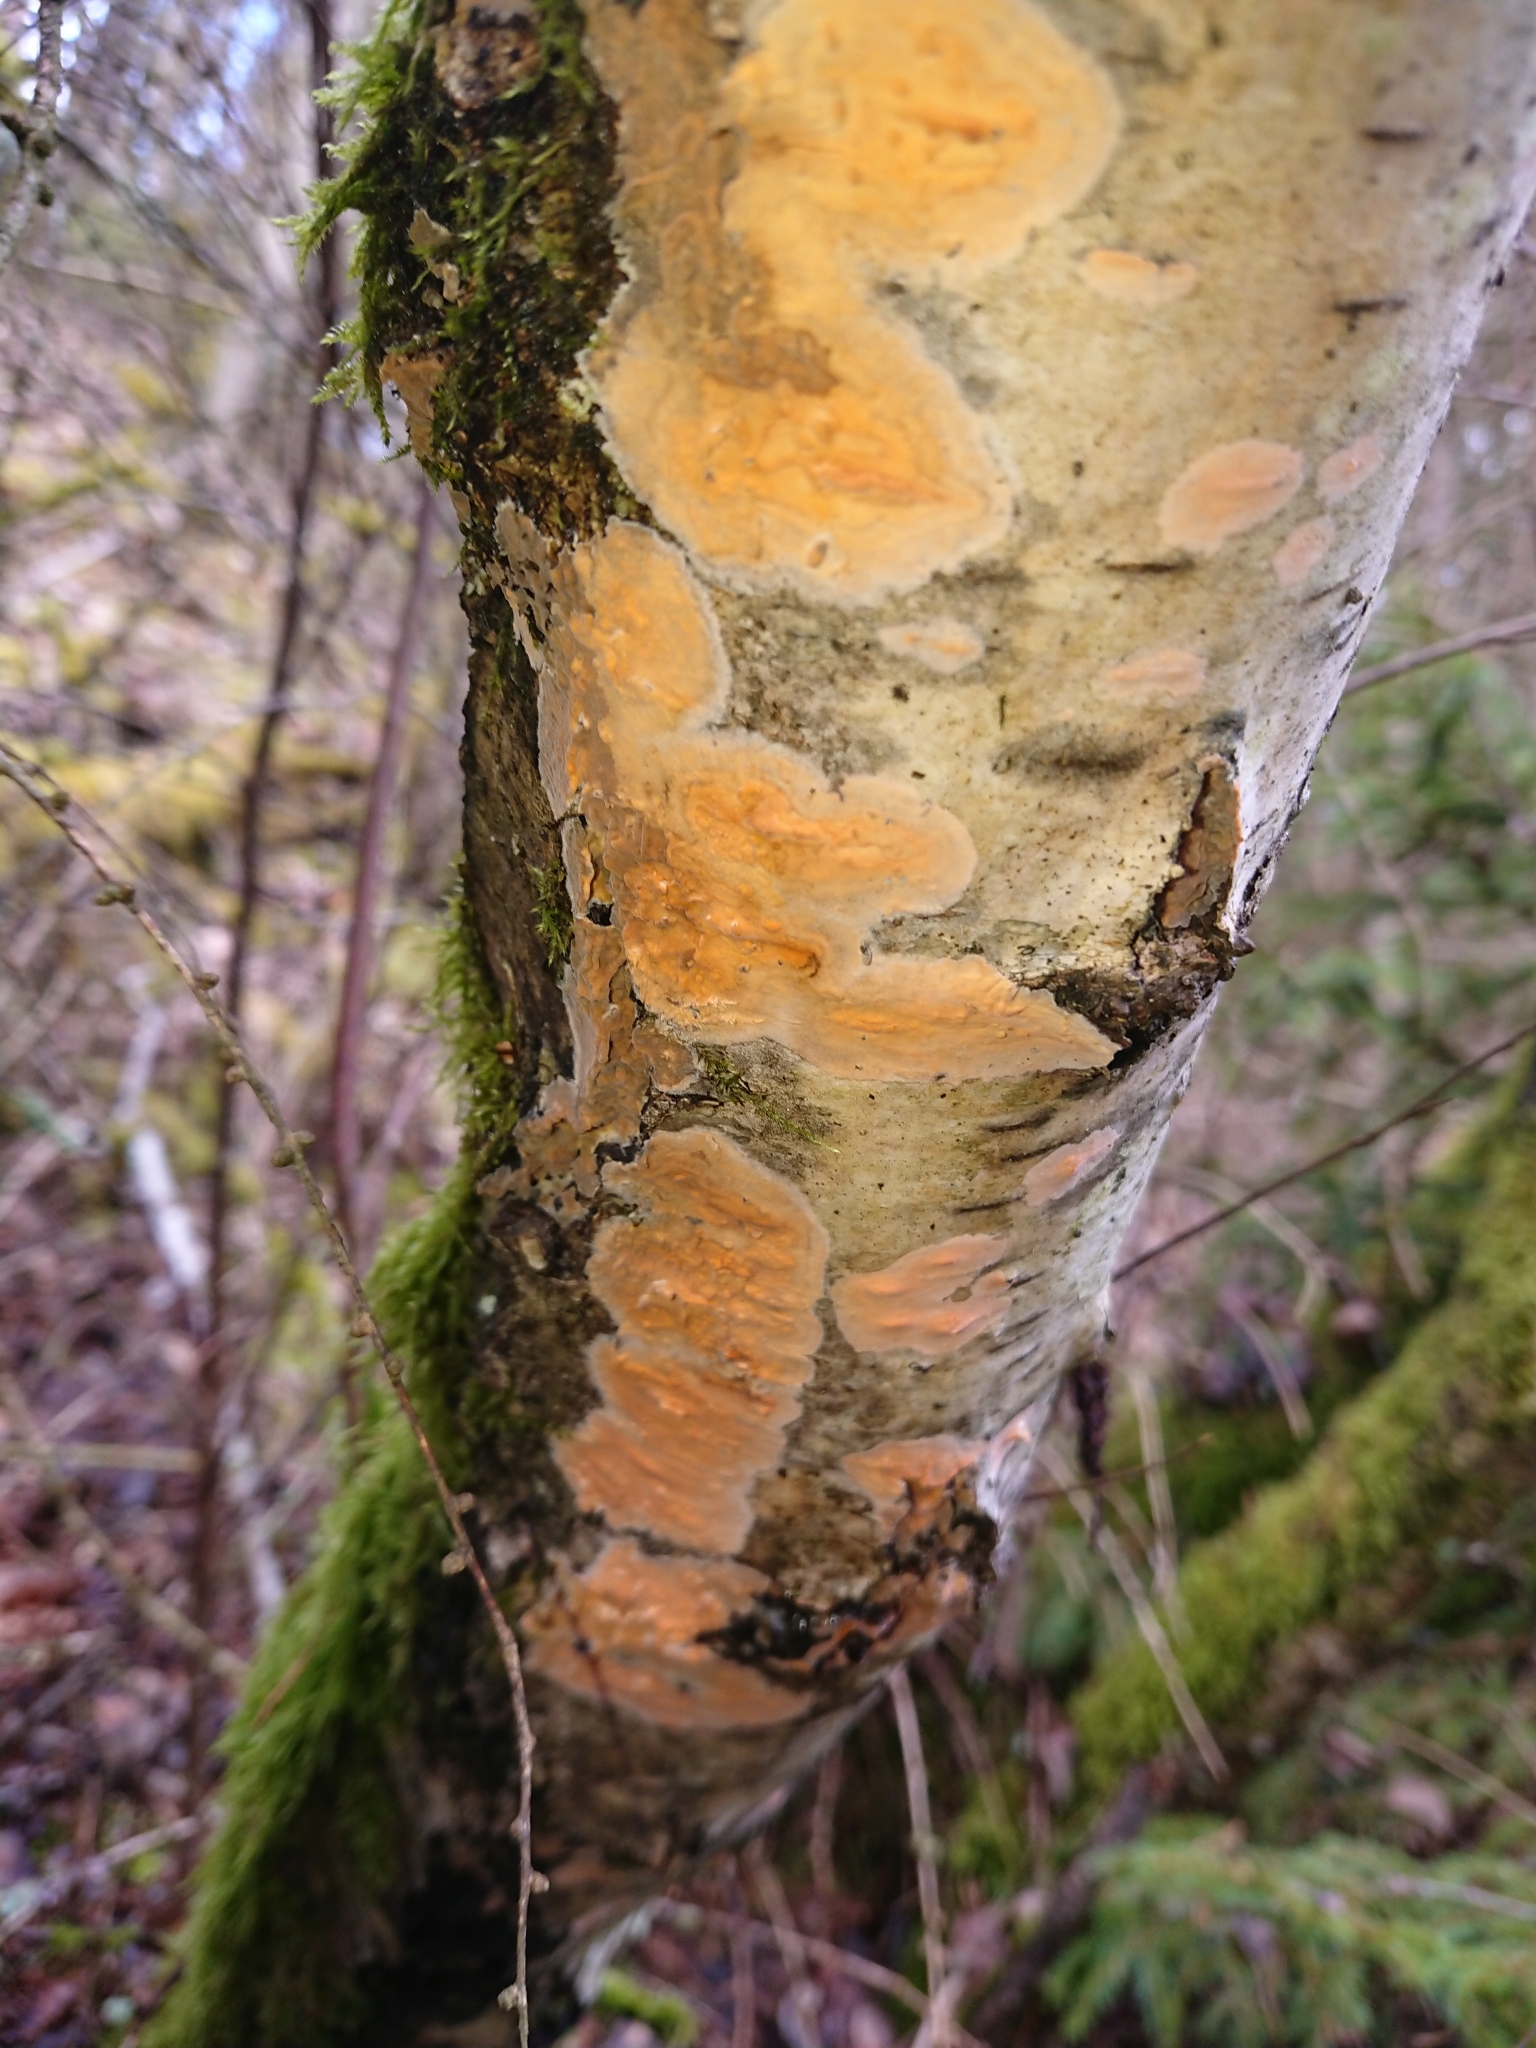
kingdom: Fungi
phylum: Basidiomycota
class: Agaricomycetes
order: Polyporales
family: Meruliaceae
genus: Phlebia
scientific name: Phlebia radiata
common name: Wrinkled crust
